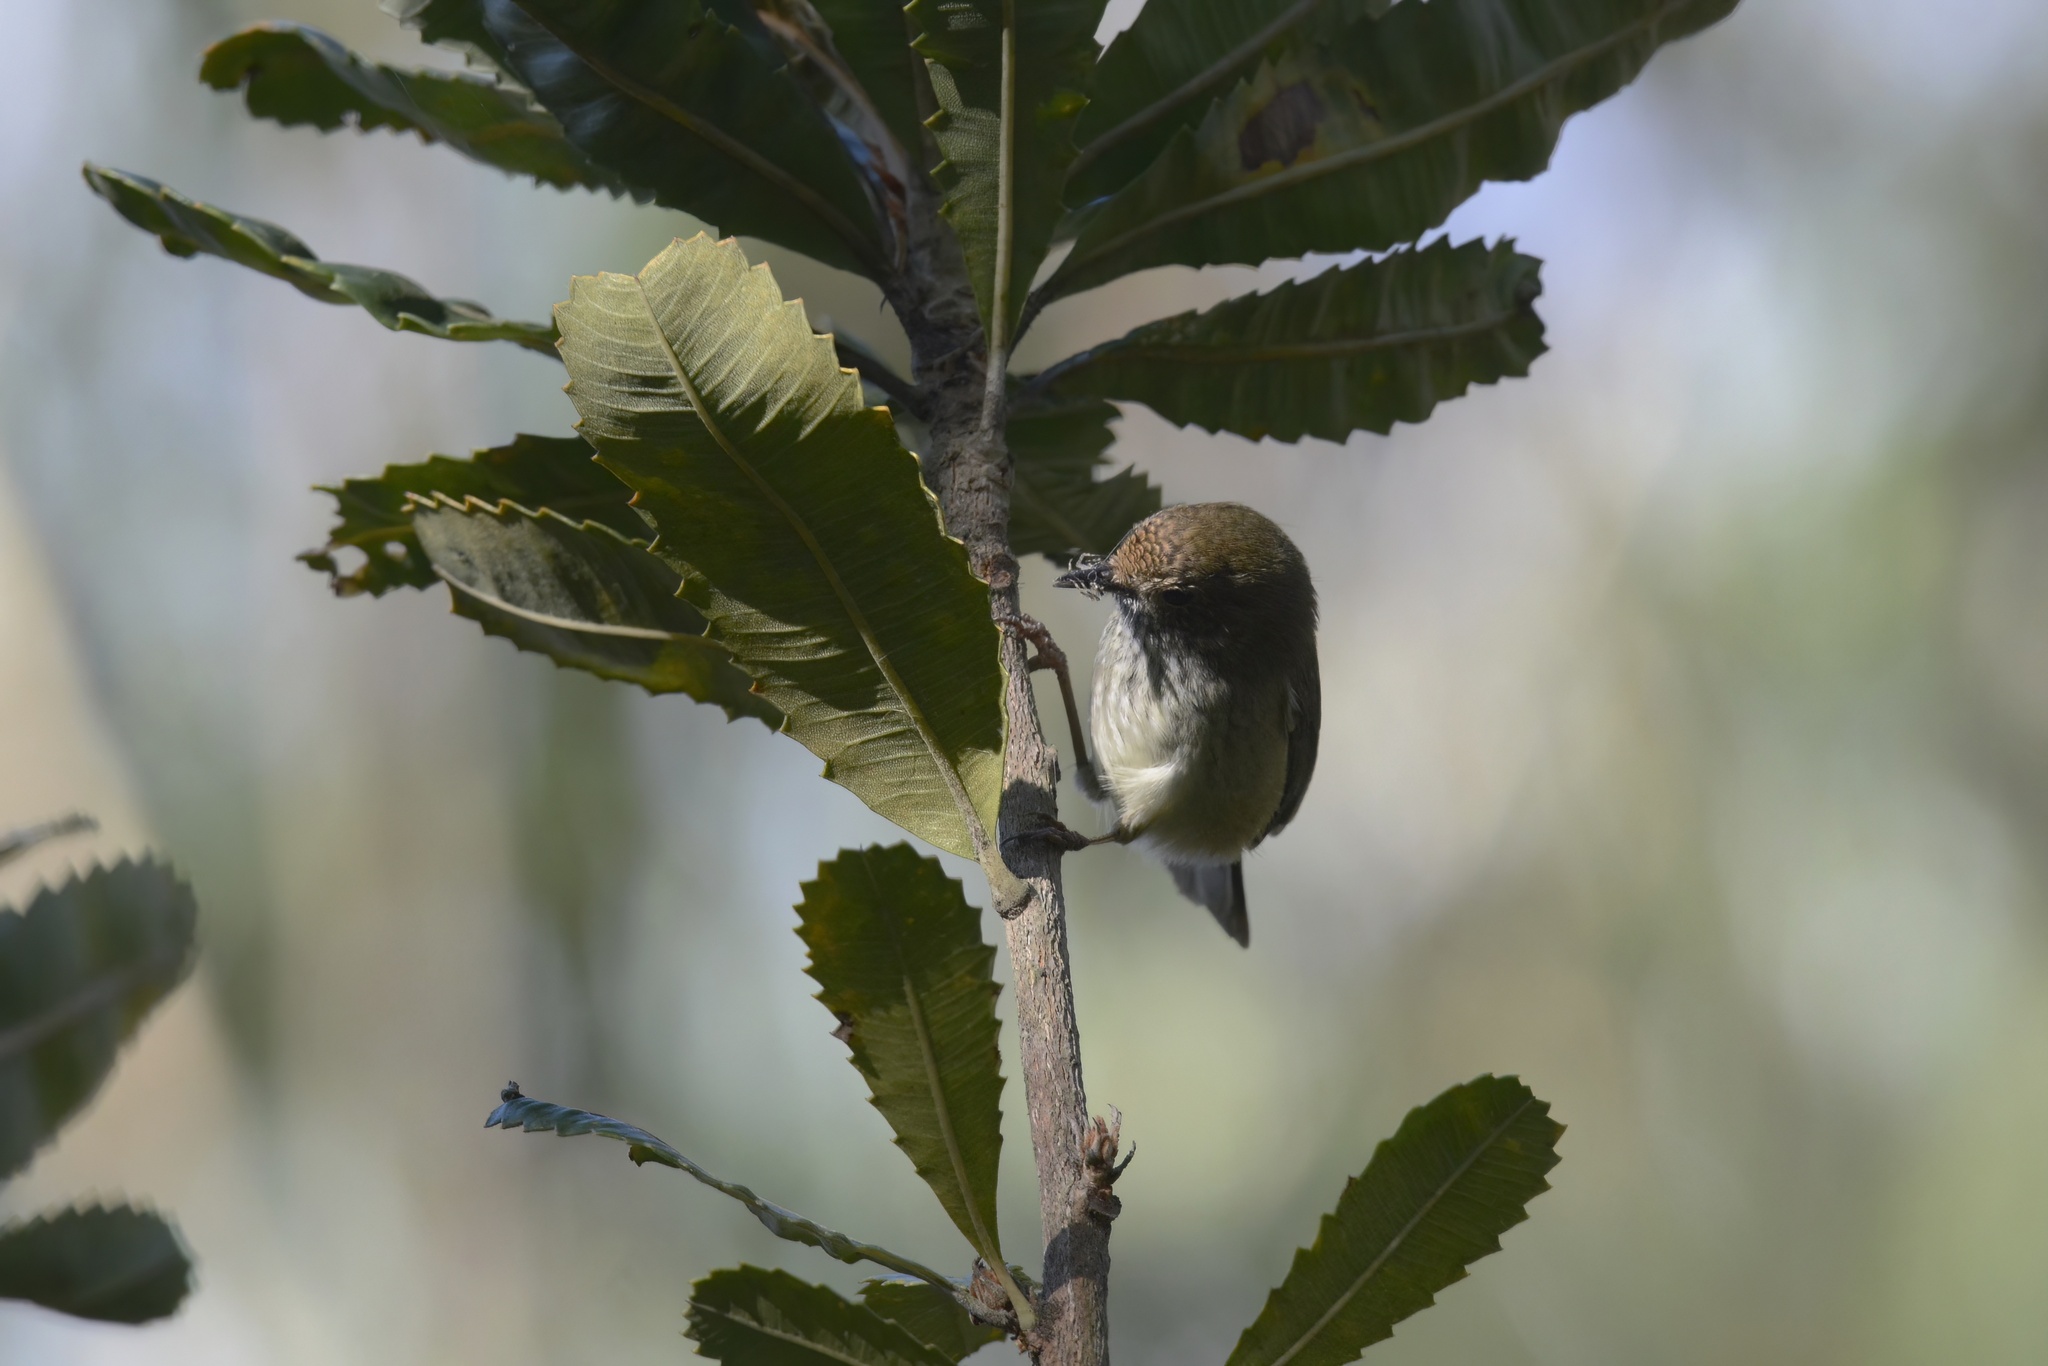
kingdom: Animalia
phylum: Chordata
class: Aves
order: Passeriformes
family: Acanthizidae
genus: Acanthiza
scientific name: Acanthiza pusilla
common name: Brown thornbill
